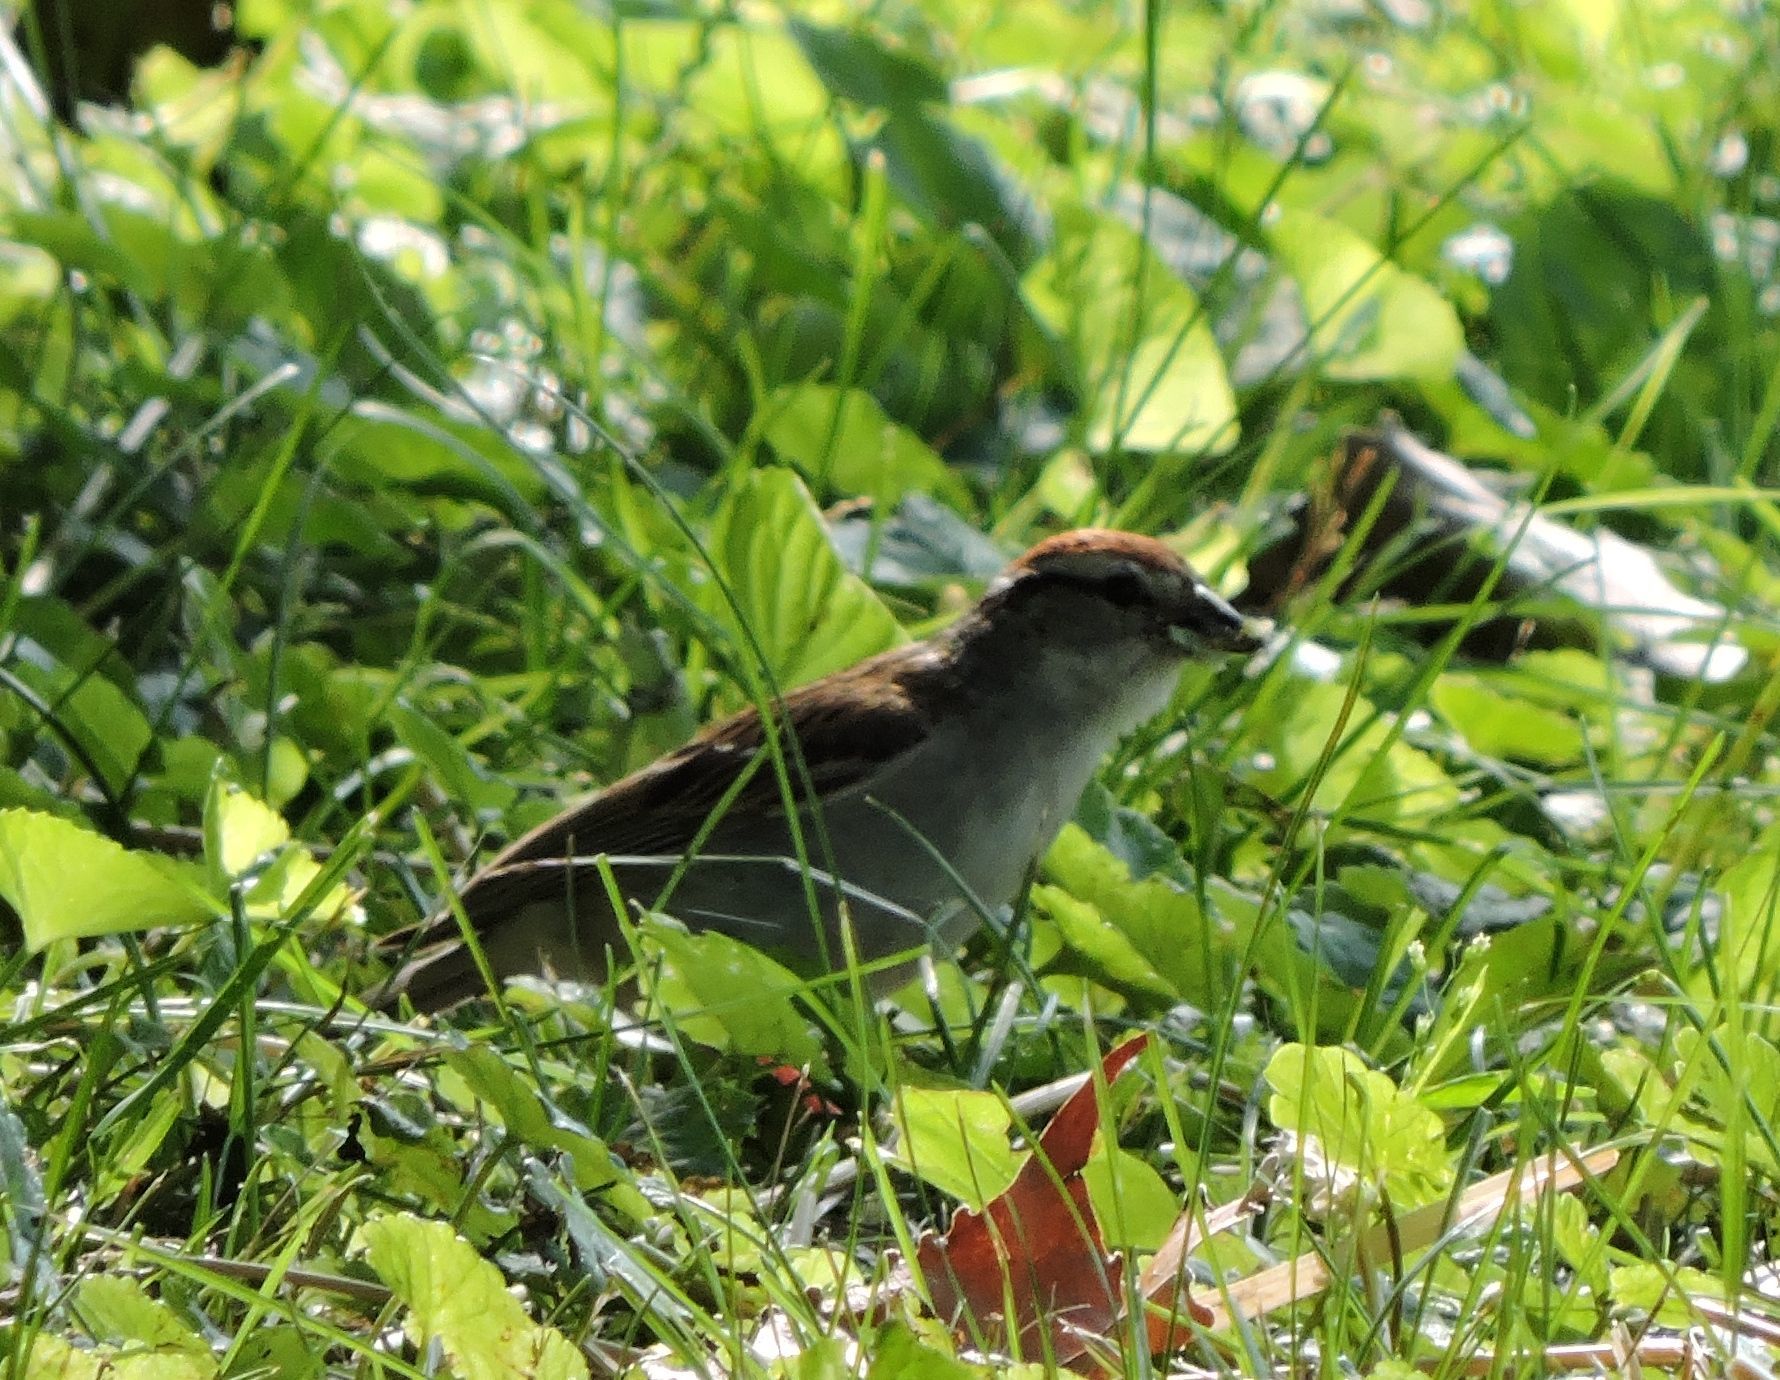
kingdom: Animalia
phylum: Chordata
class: Aves
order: Passeriformes
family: Passerellidae
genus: Spizella
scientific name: Spizella passerina
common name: Chipping sparrow
